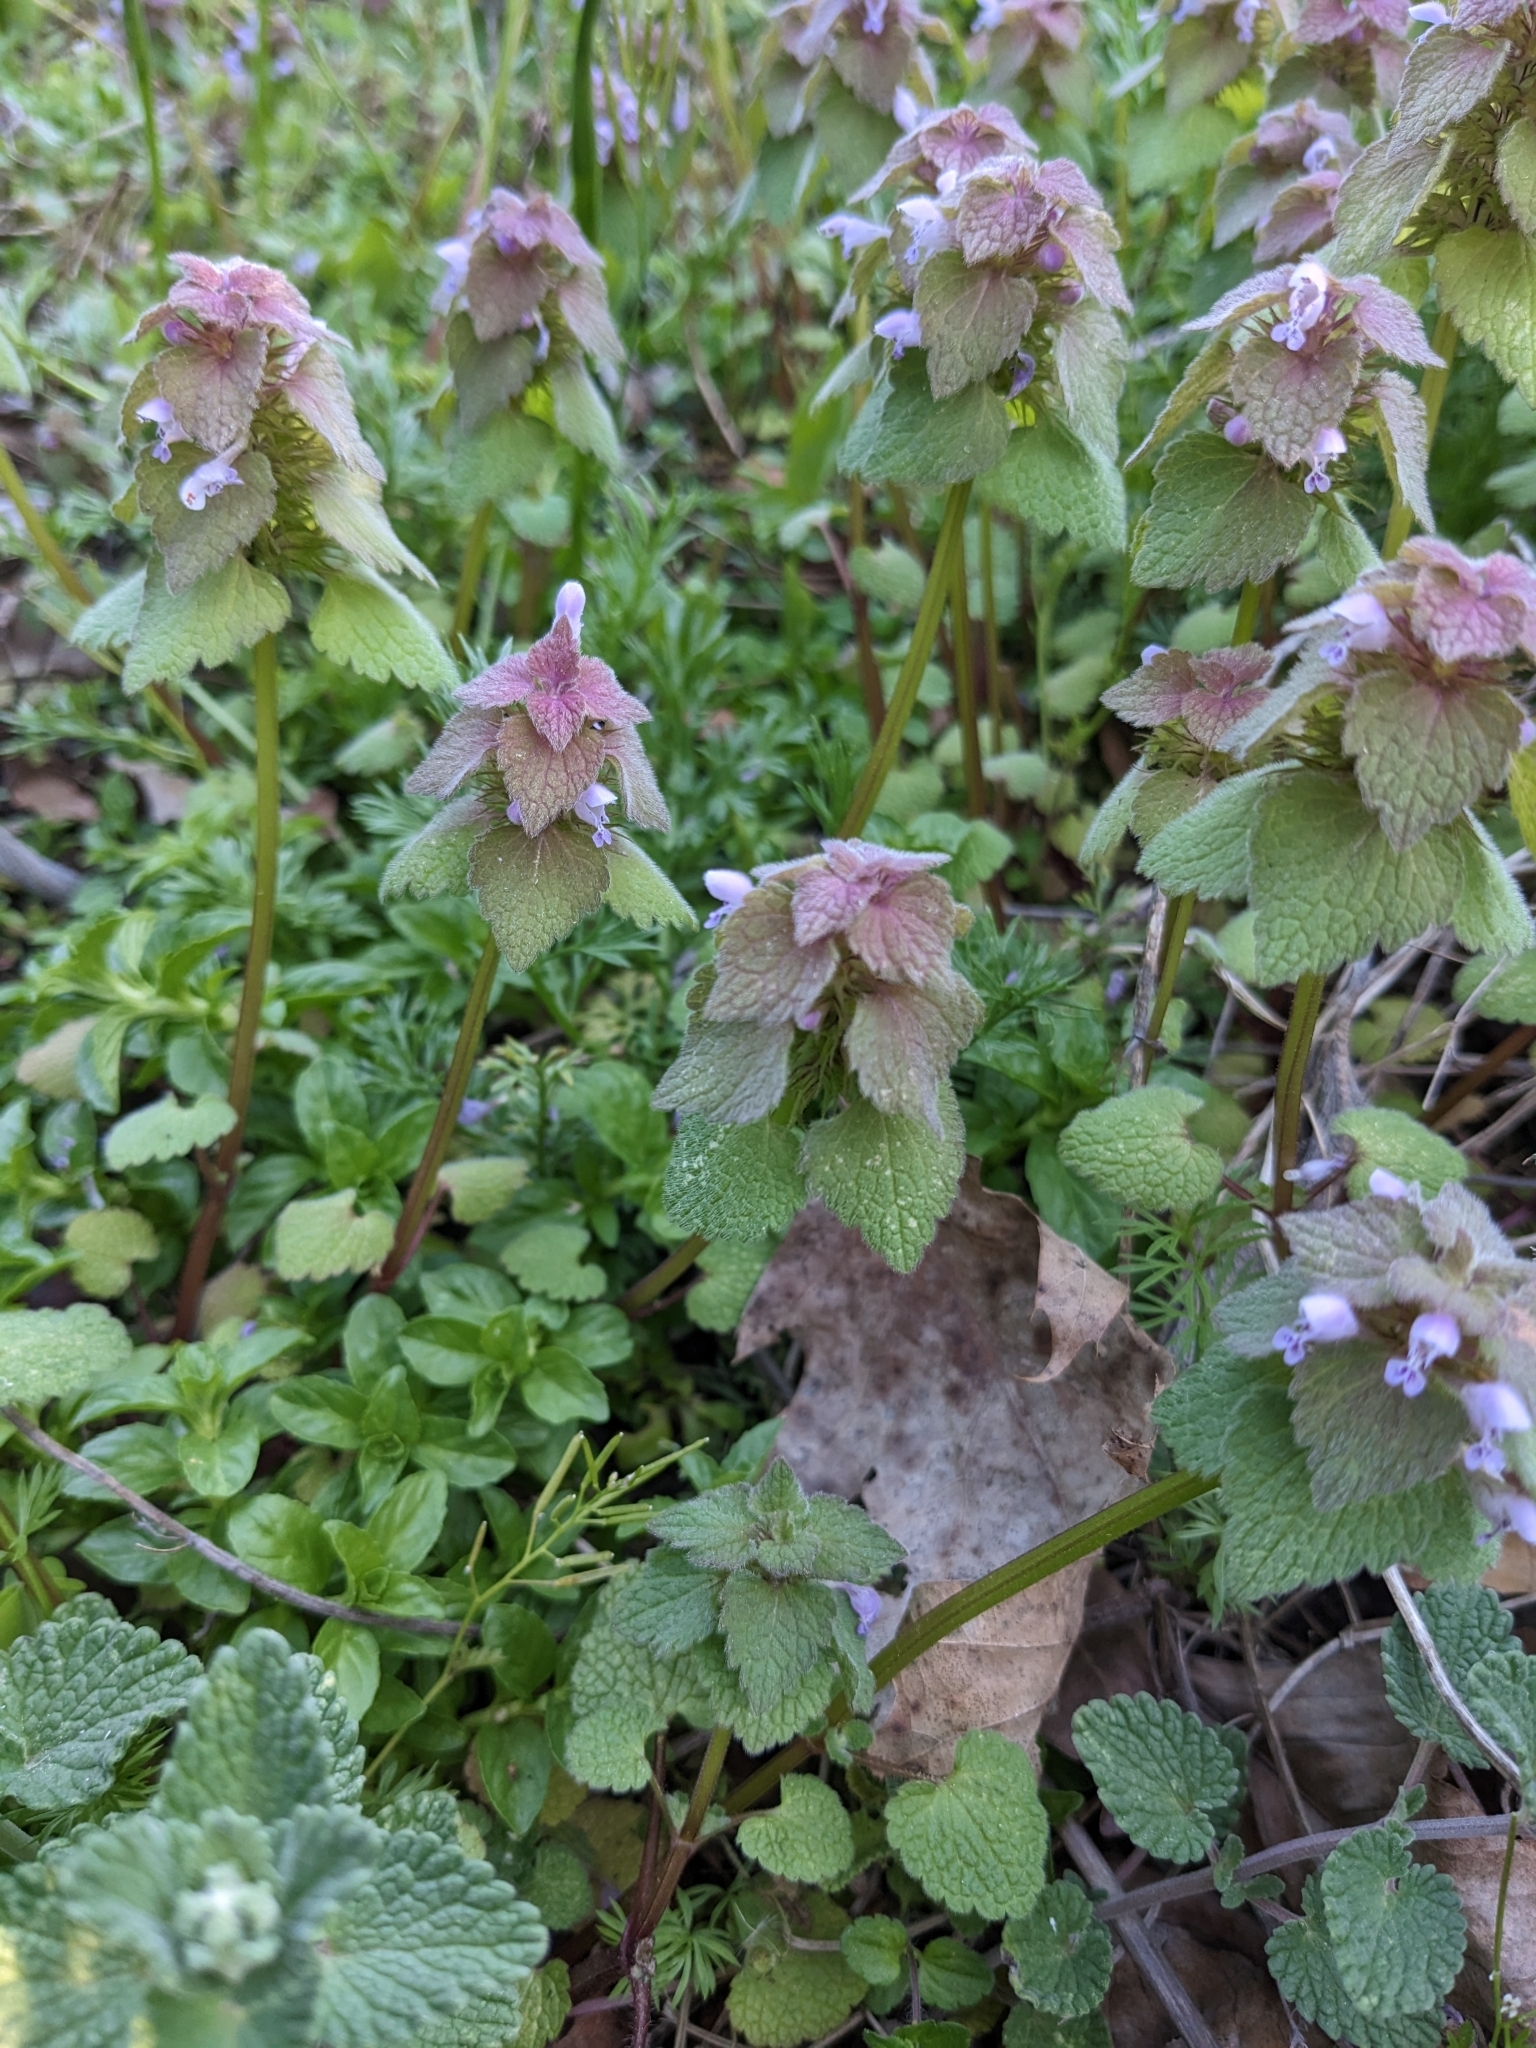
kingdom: Plantae
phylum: Tracheophyta
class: Magnoliopsida
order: Lamiales
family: Lamiaceae
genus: Lamium
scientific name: Lamium purpureum
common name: Red dead-nettle
